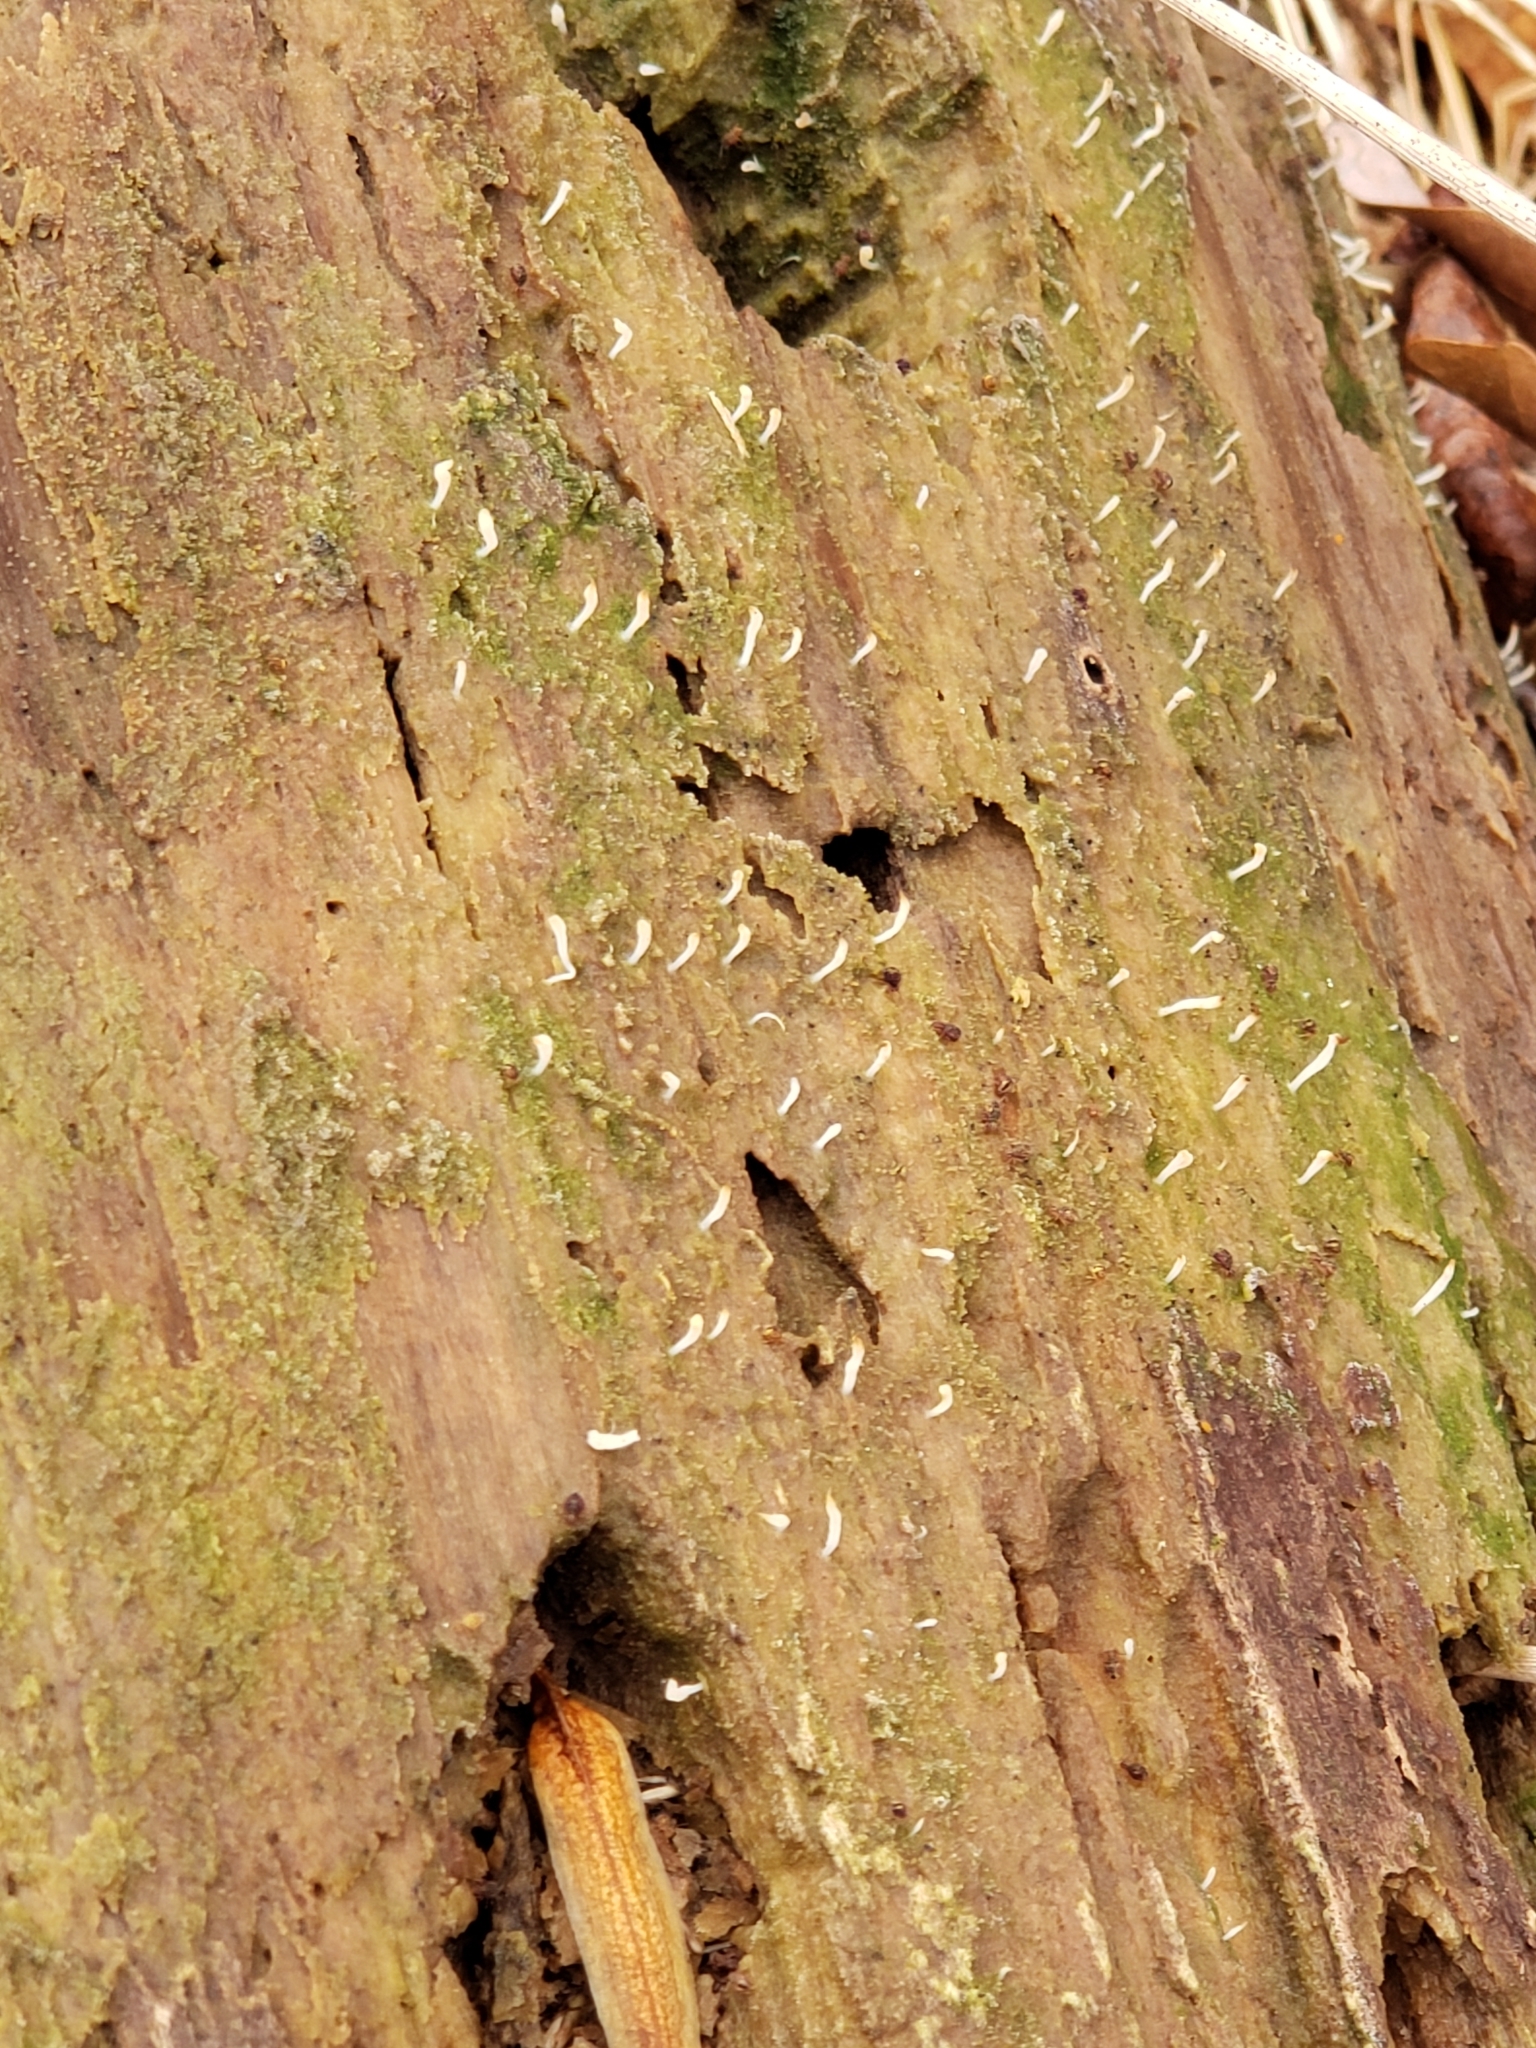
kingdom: Fungi
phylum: Basidiomycota
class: Agaricomycetes
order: Cantharellales
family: Hydnaceae
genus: Multiclavula
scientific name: Multiclavula mucida
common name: White green-algae coral
